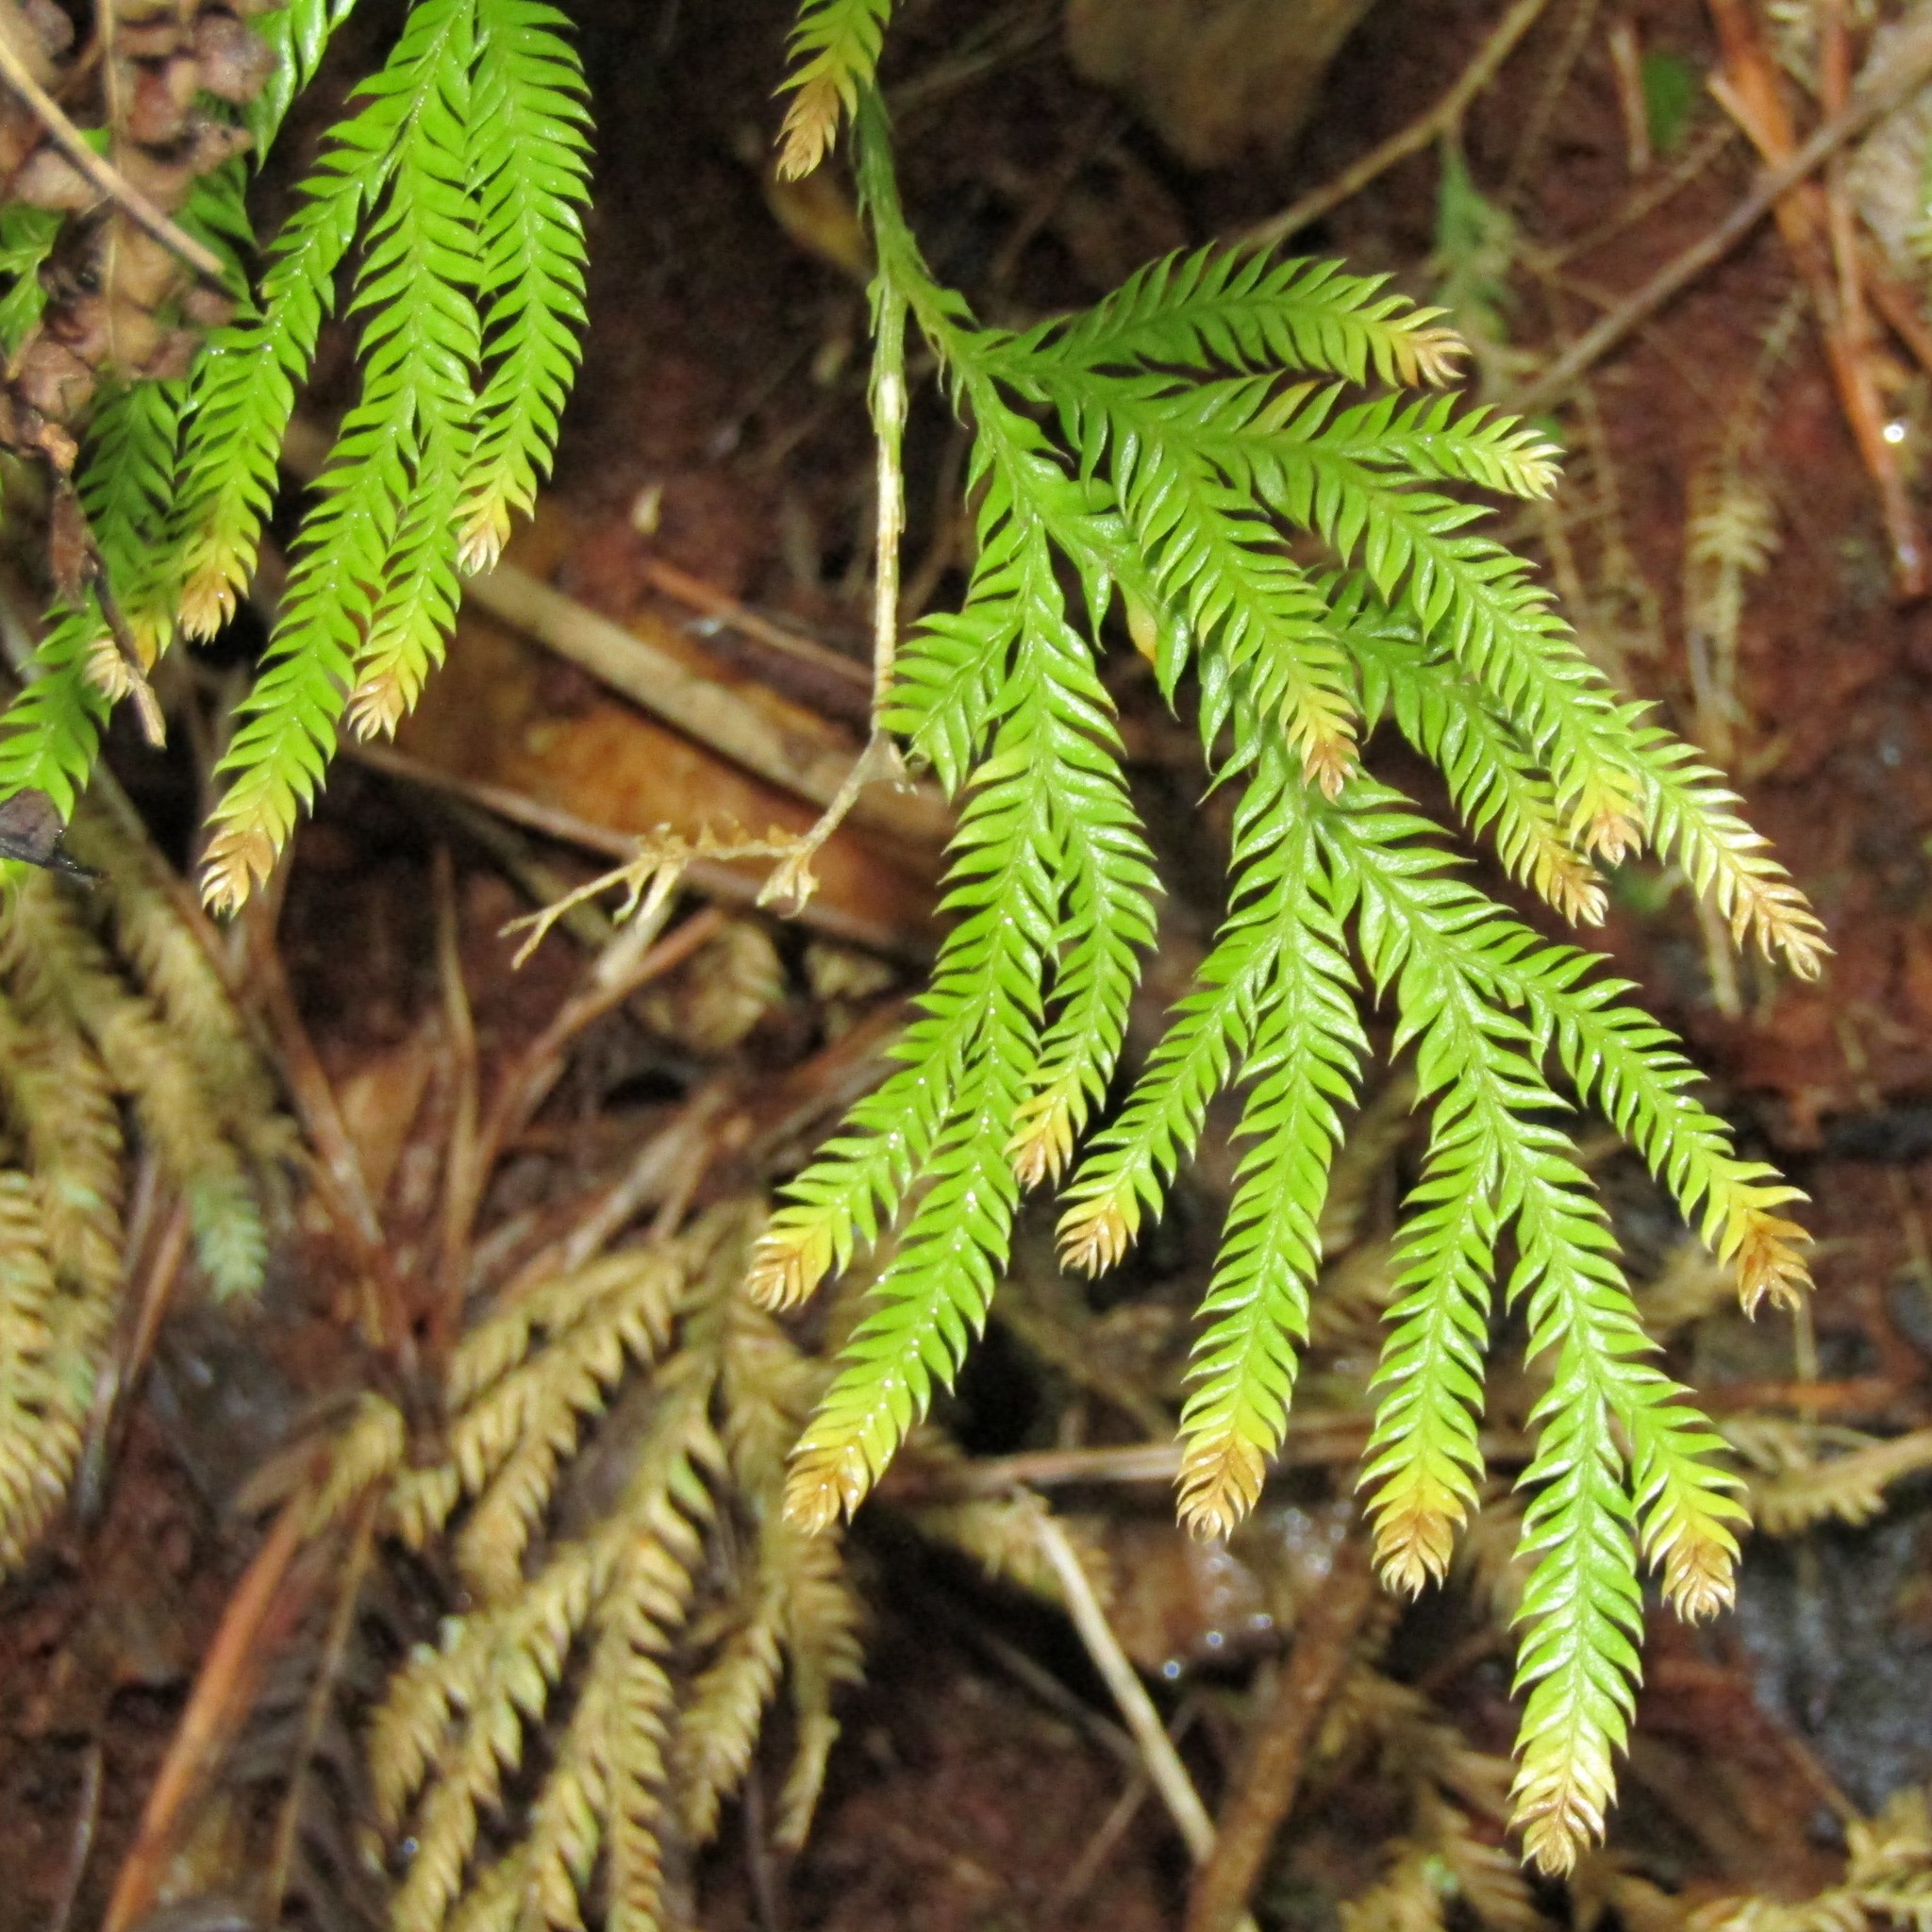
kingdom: Plantae
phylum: Tracheophyta
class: Lycopodiopsida
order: Lycopodiales
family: Lycopodiaceae
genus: Lycopodium
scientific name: Lycopodium volubile
